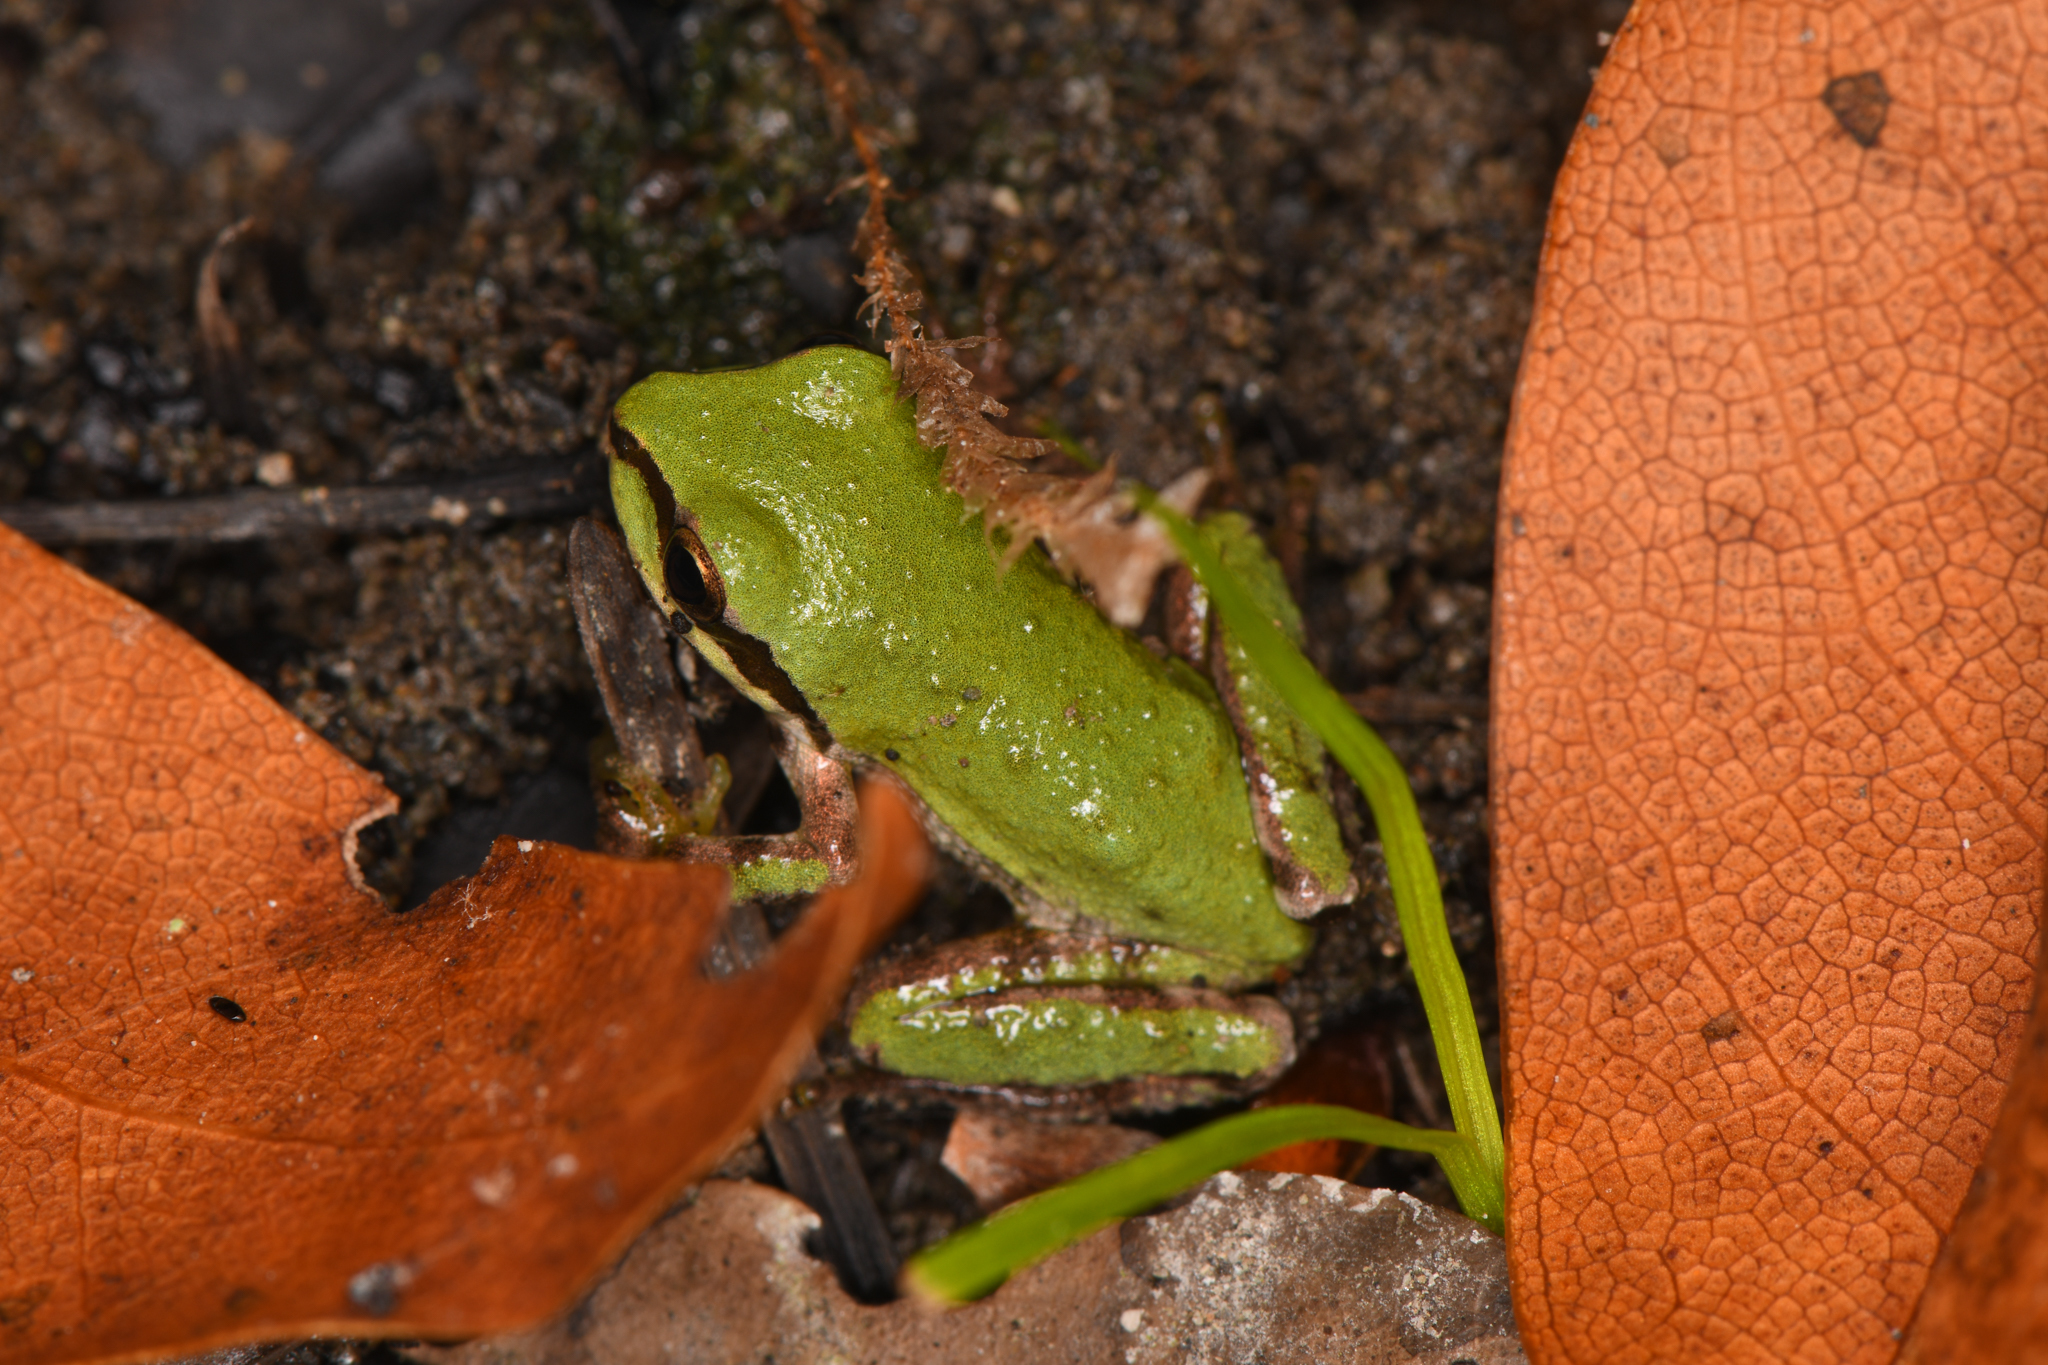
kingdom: Animalia
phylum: Chordata
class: Amphibia
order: Anura
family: Hylidae
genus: Pseudacris
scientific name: Pseudacris regilla
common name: Pacific chorus frog
